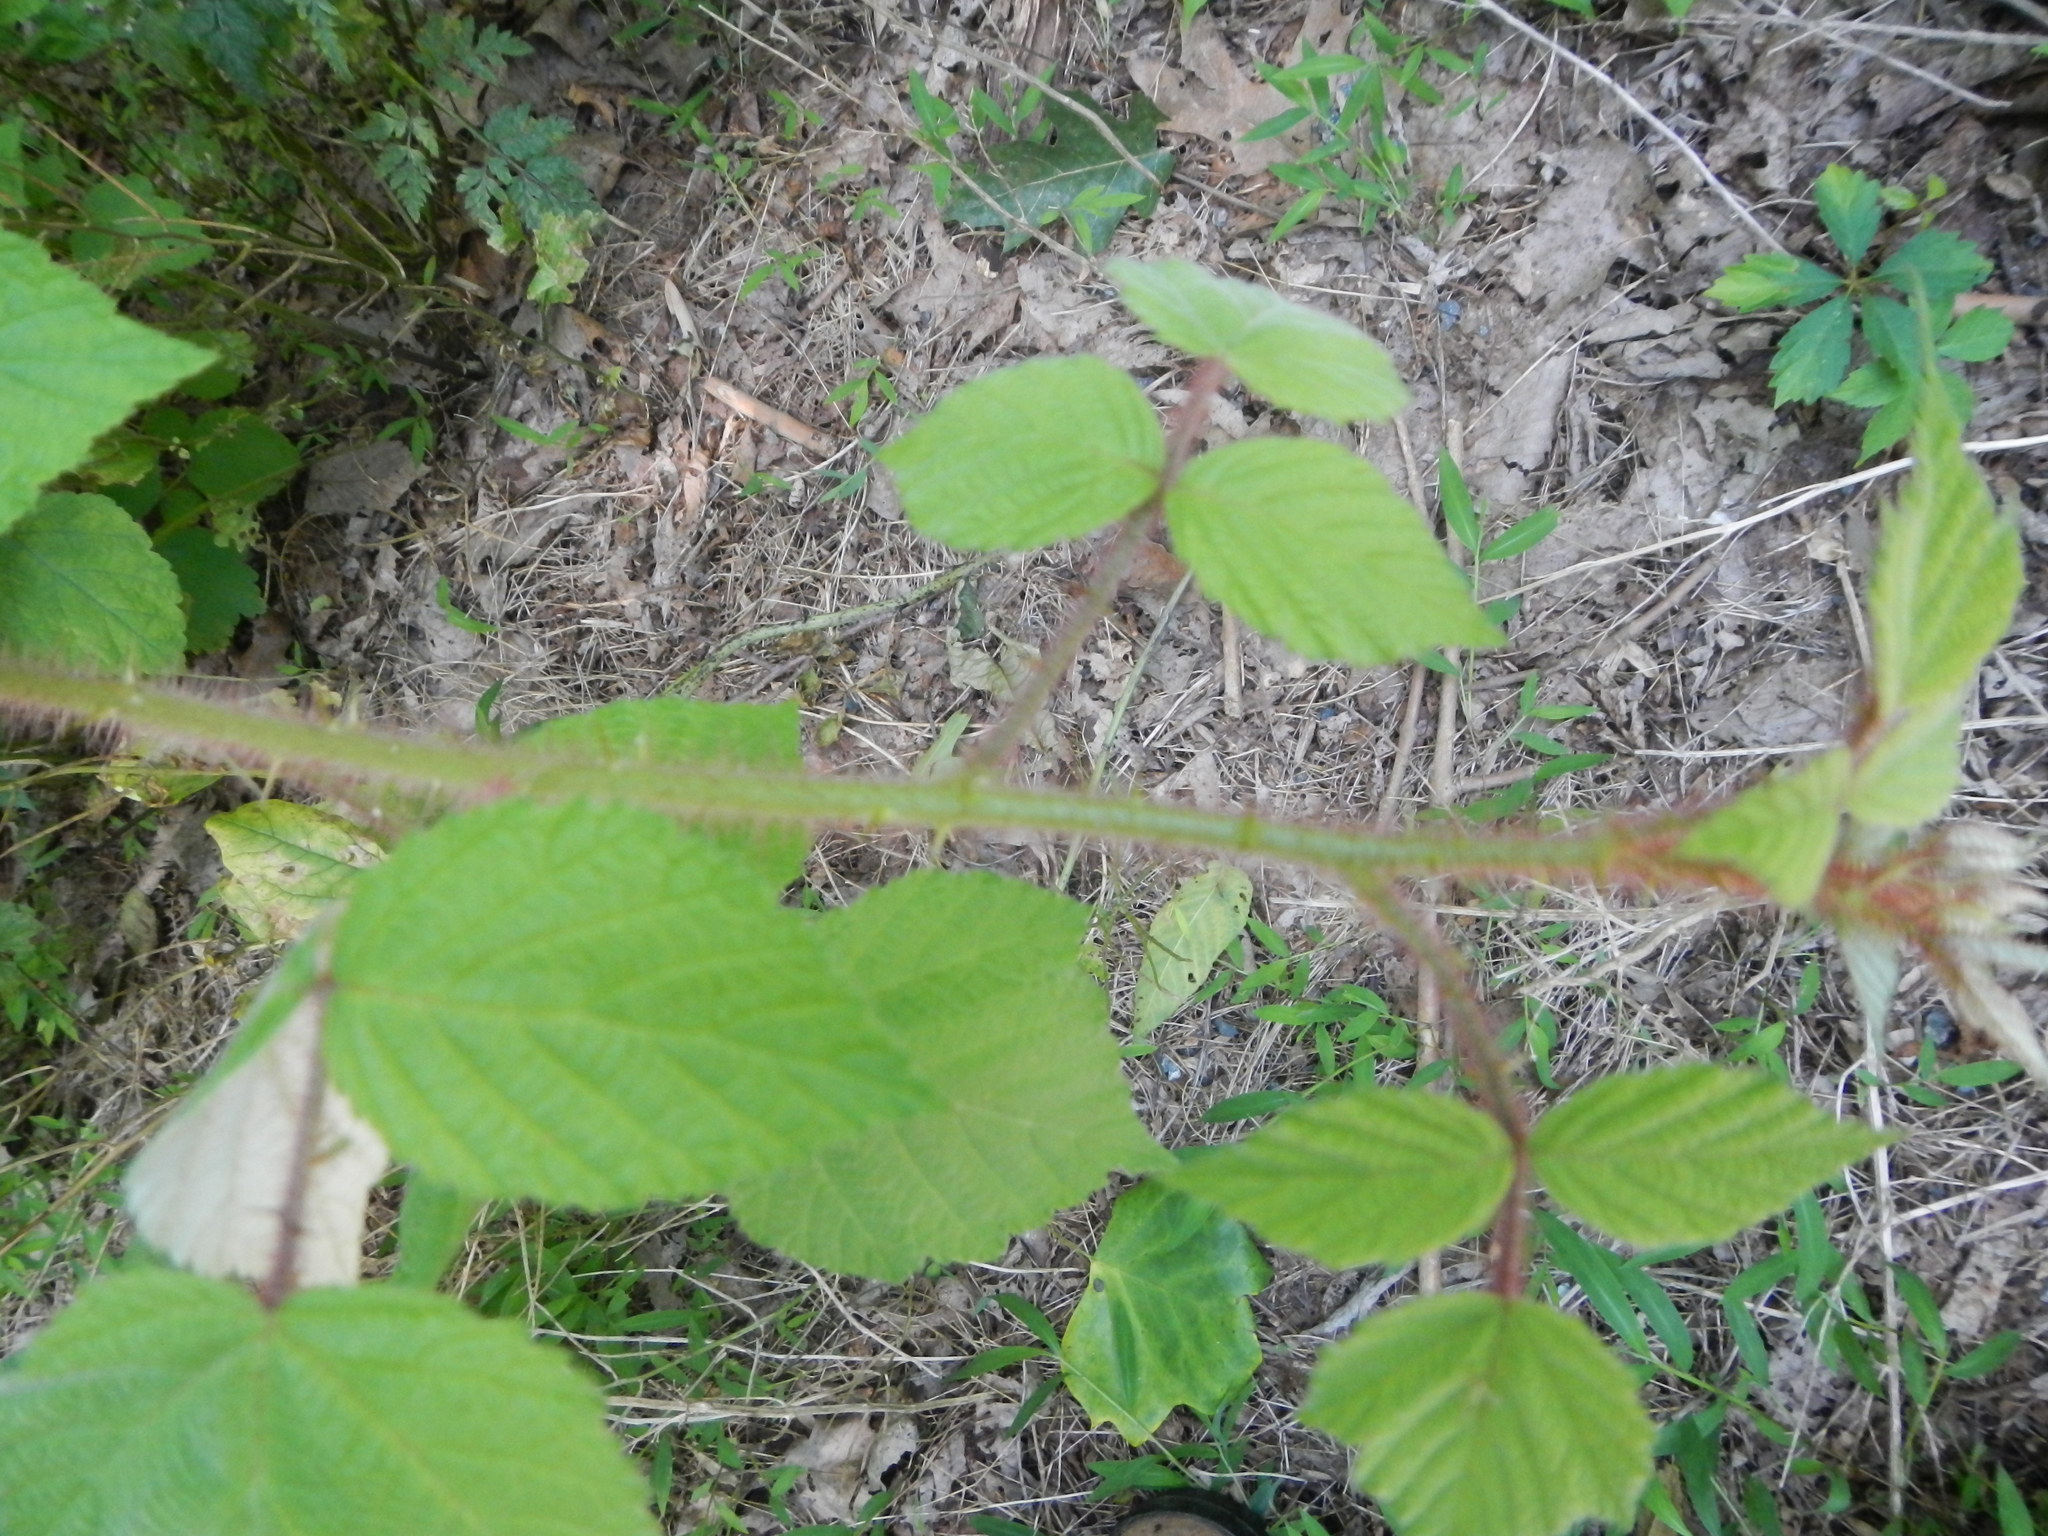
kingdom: Plantae
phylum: Tracheophyta
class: Magnoliopsida
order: Rosales
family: Rosaceae
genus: Rubus
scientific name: Rubus phoenicolasius
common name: Japanese wineberry
